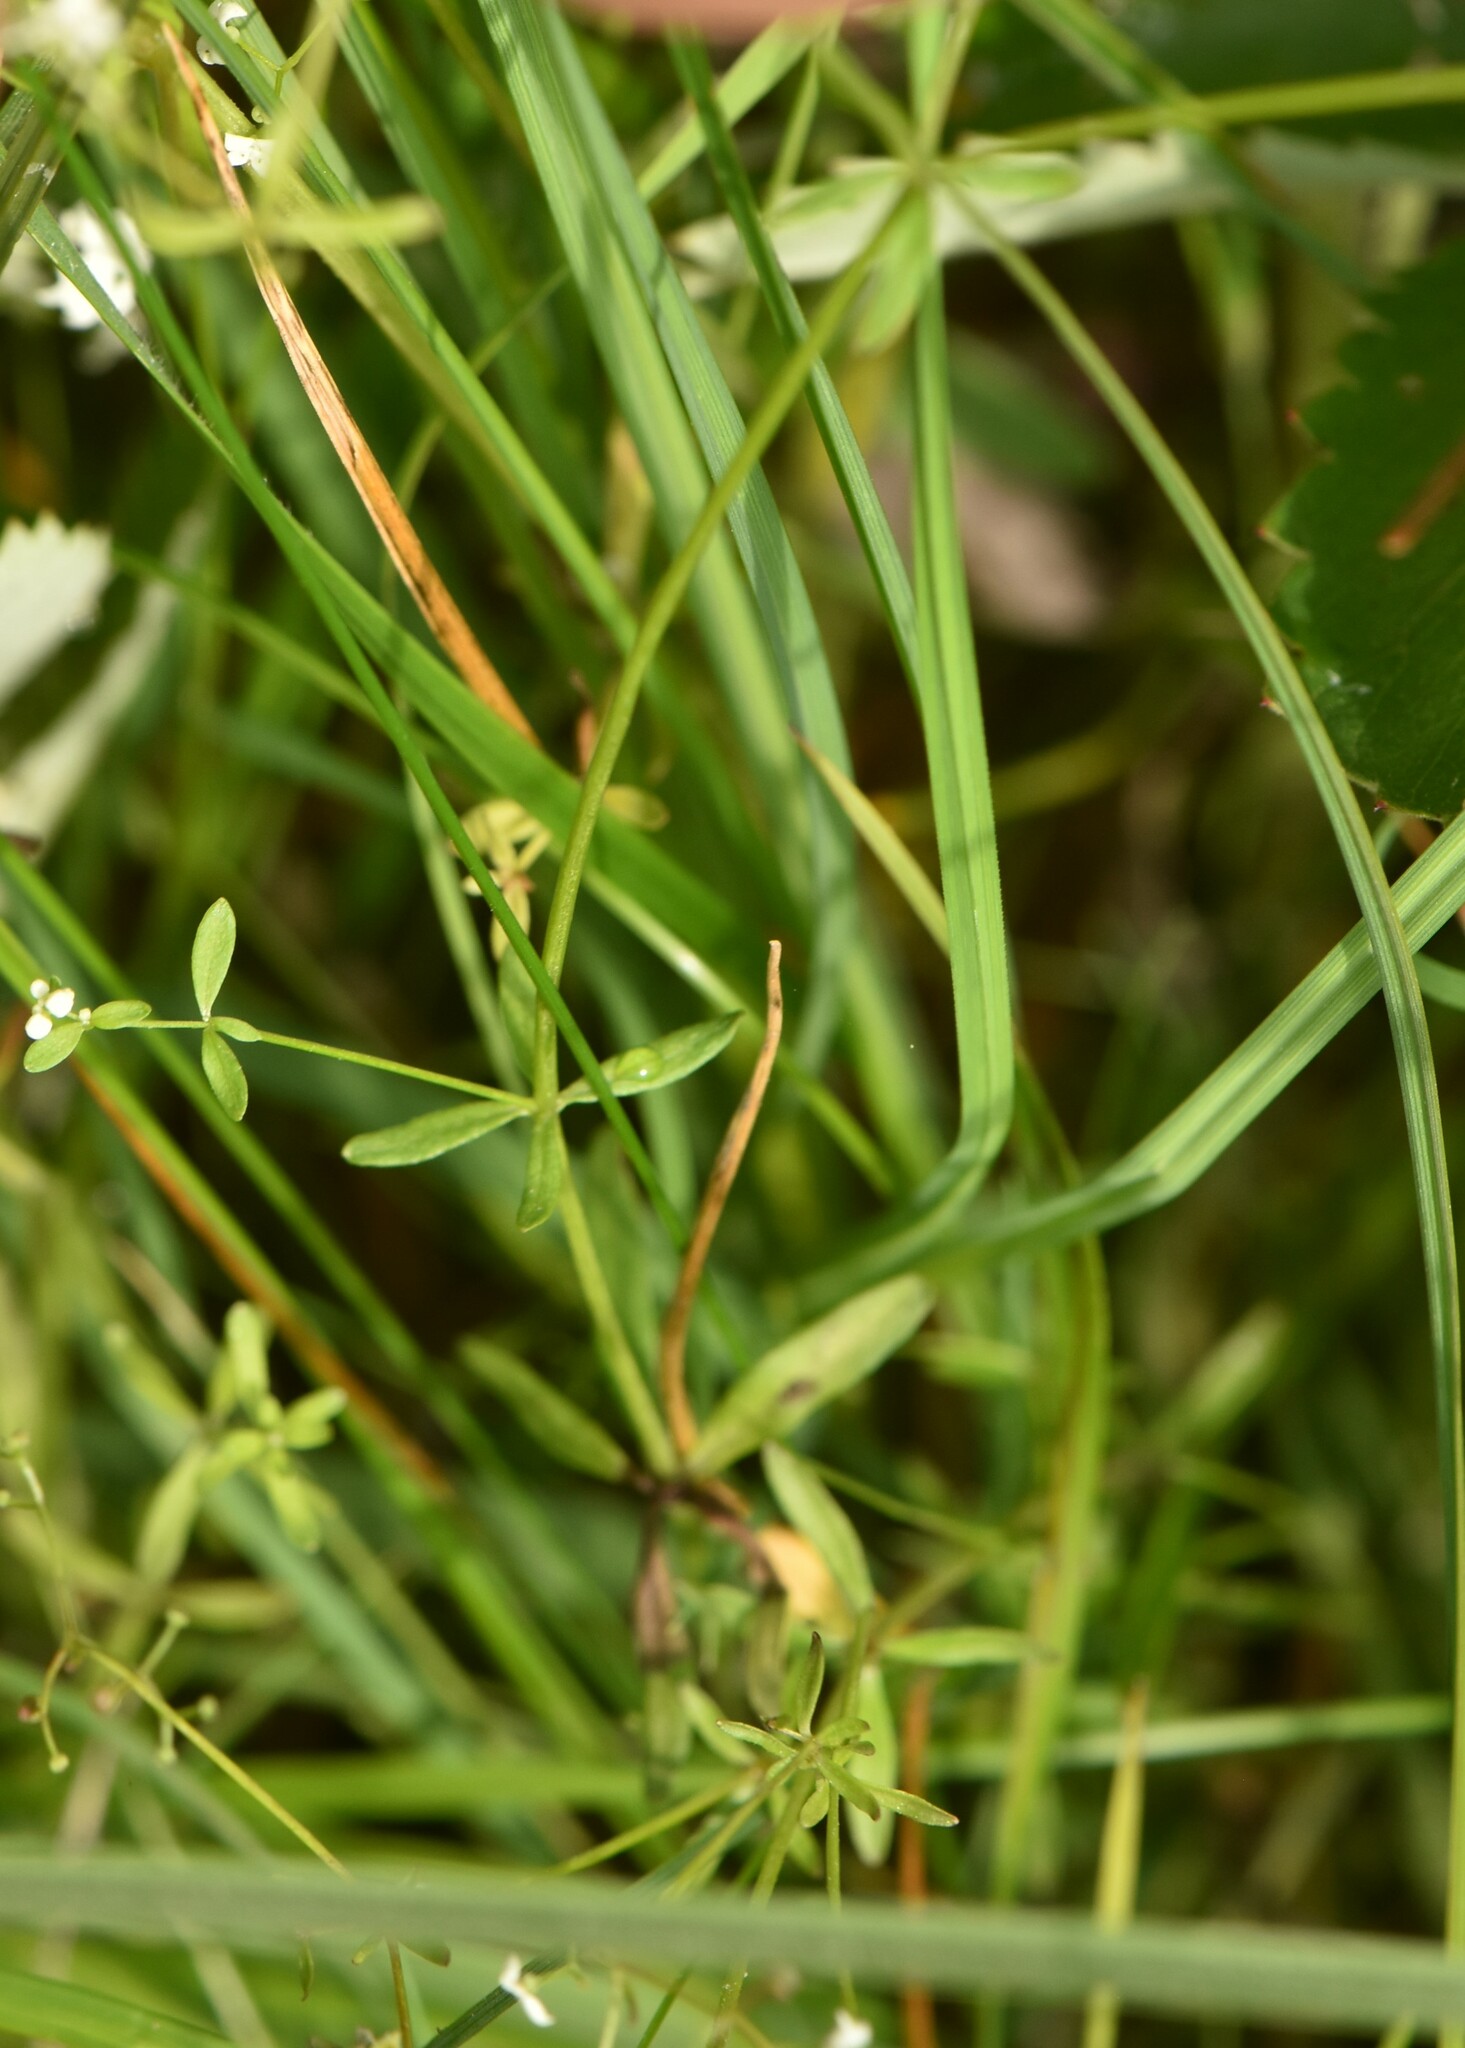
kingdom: Plantae
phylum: Tracheophyta
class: Magnoliopsida
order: Gentianales
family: Rubiaceae
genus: Galium
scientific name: Galium palustre
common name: Common marsh-bedstraw
